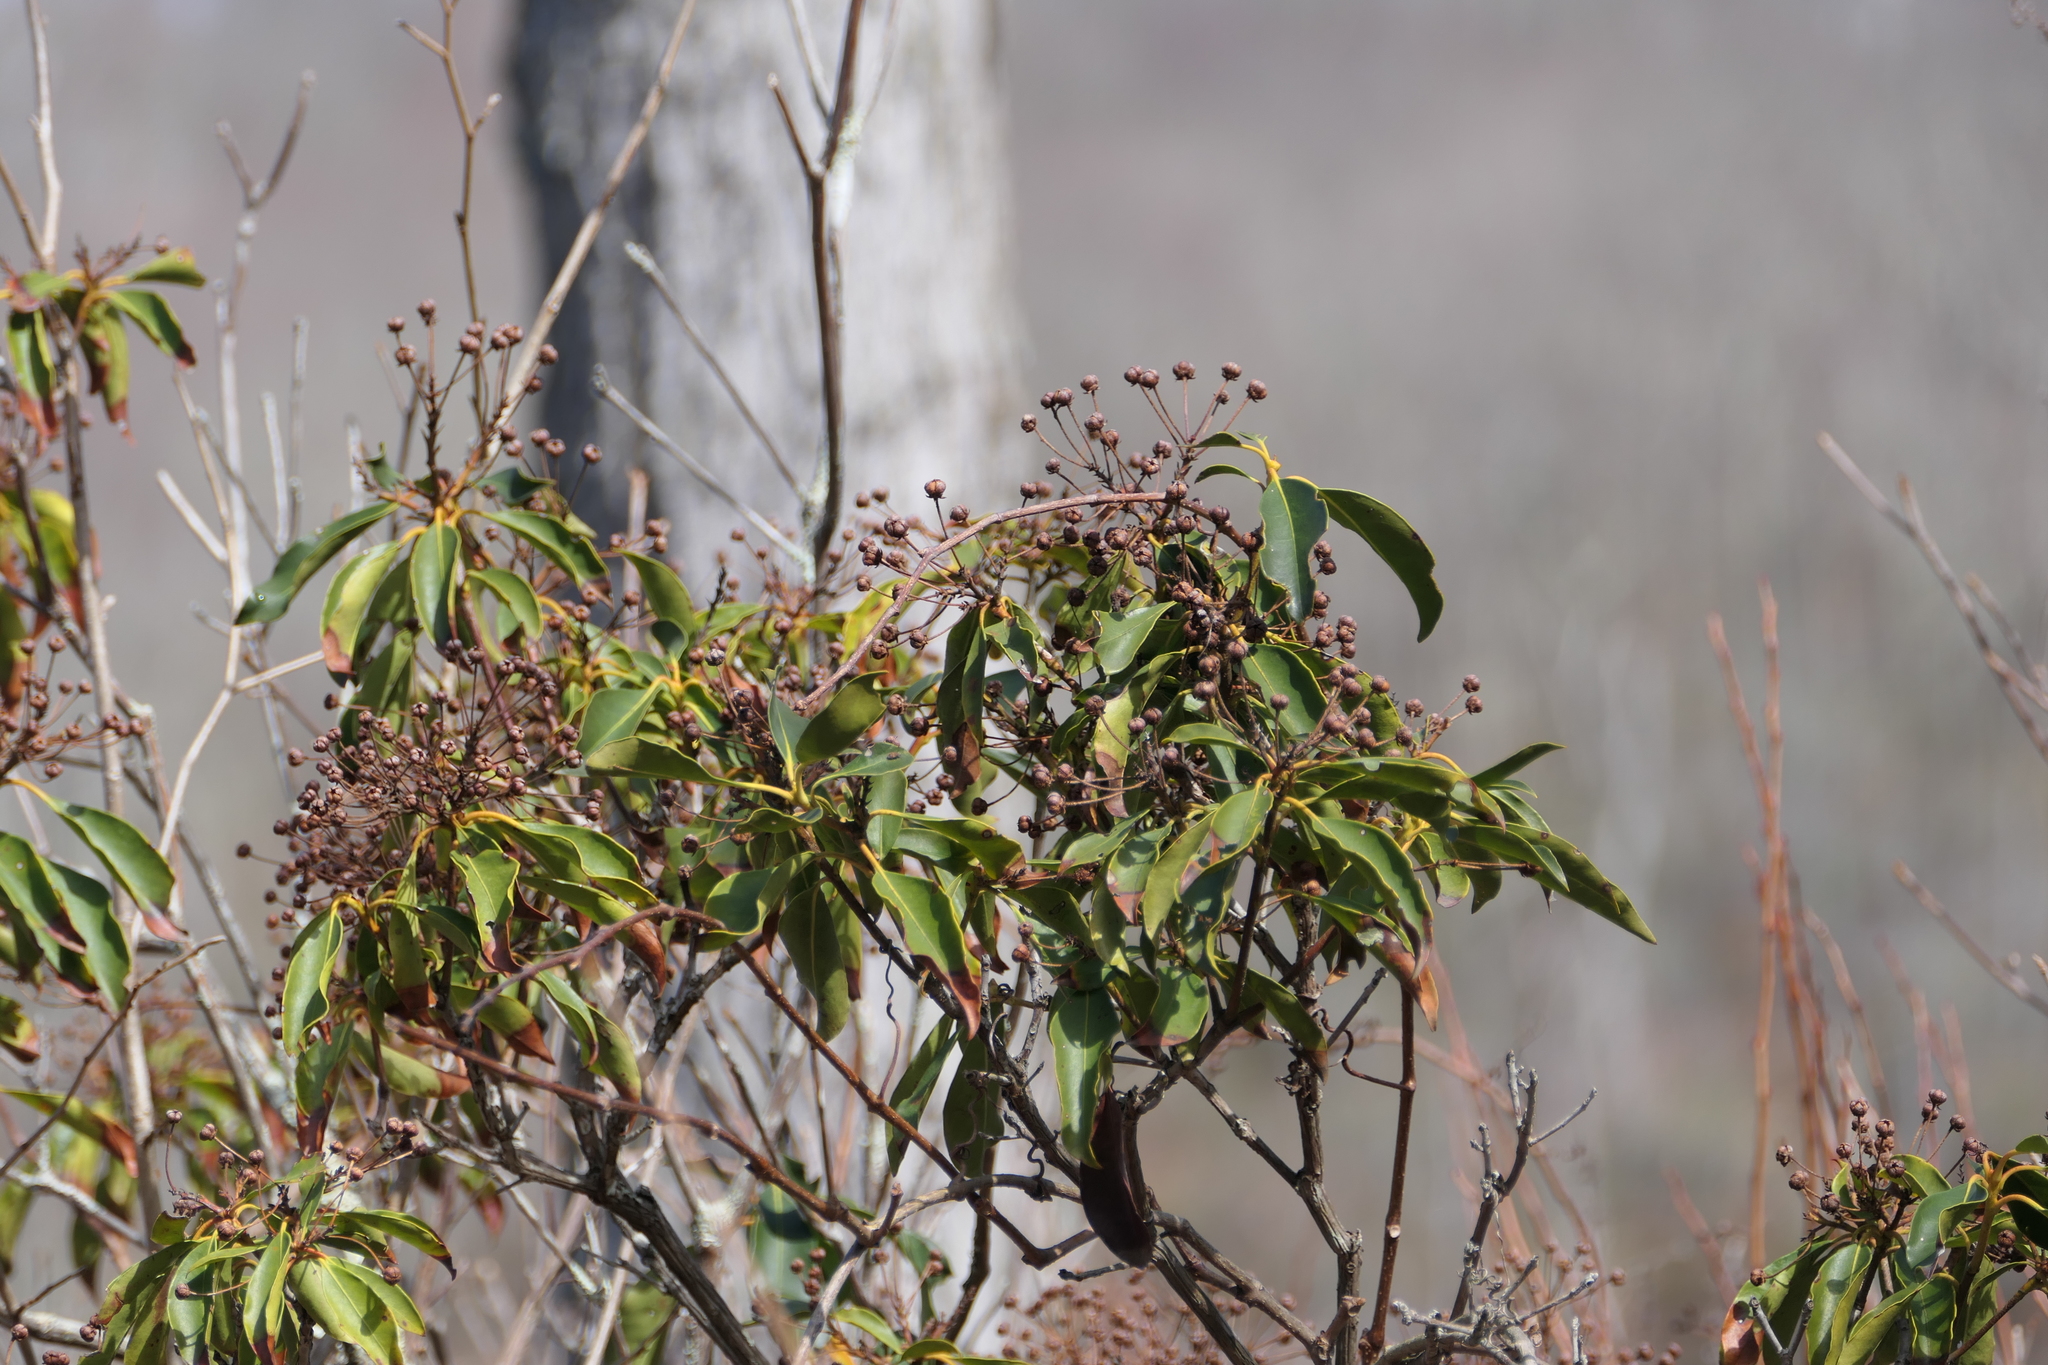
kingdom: Plantae
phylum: Tracheophyta
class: Magnoliopsida
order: Ericales
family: Ericaceae
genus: Kalmia
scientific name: Kalmia latifolia
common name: Mountain-laurel
